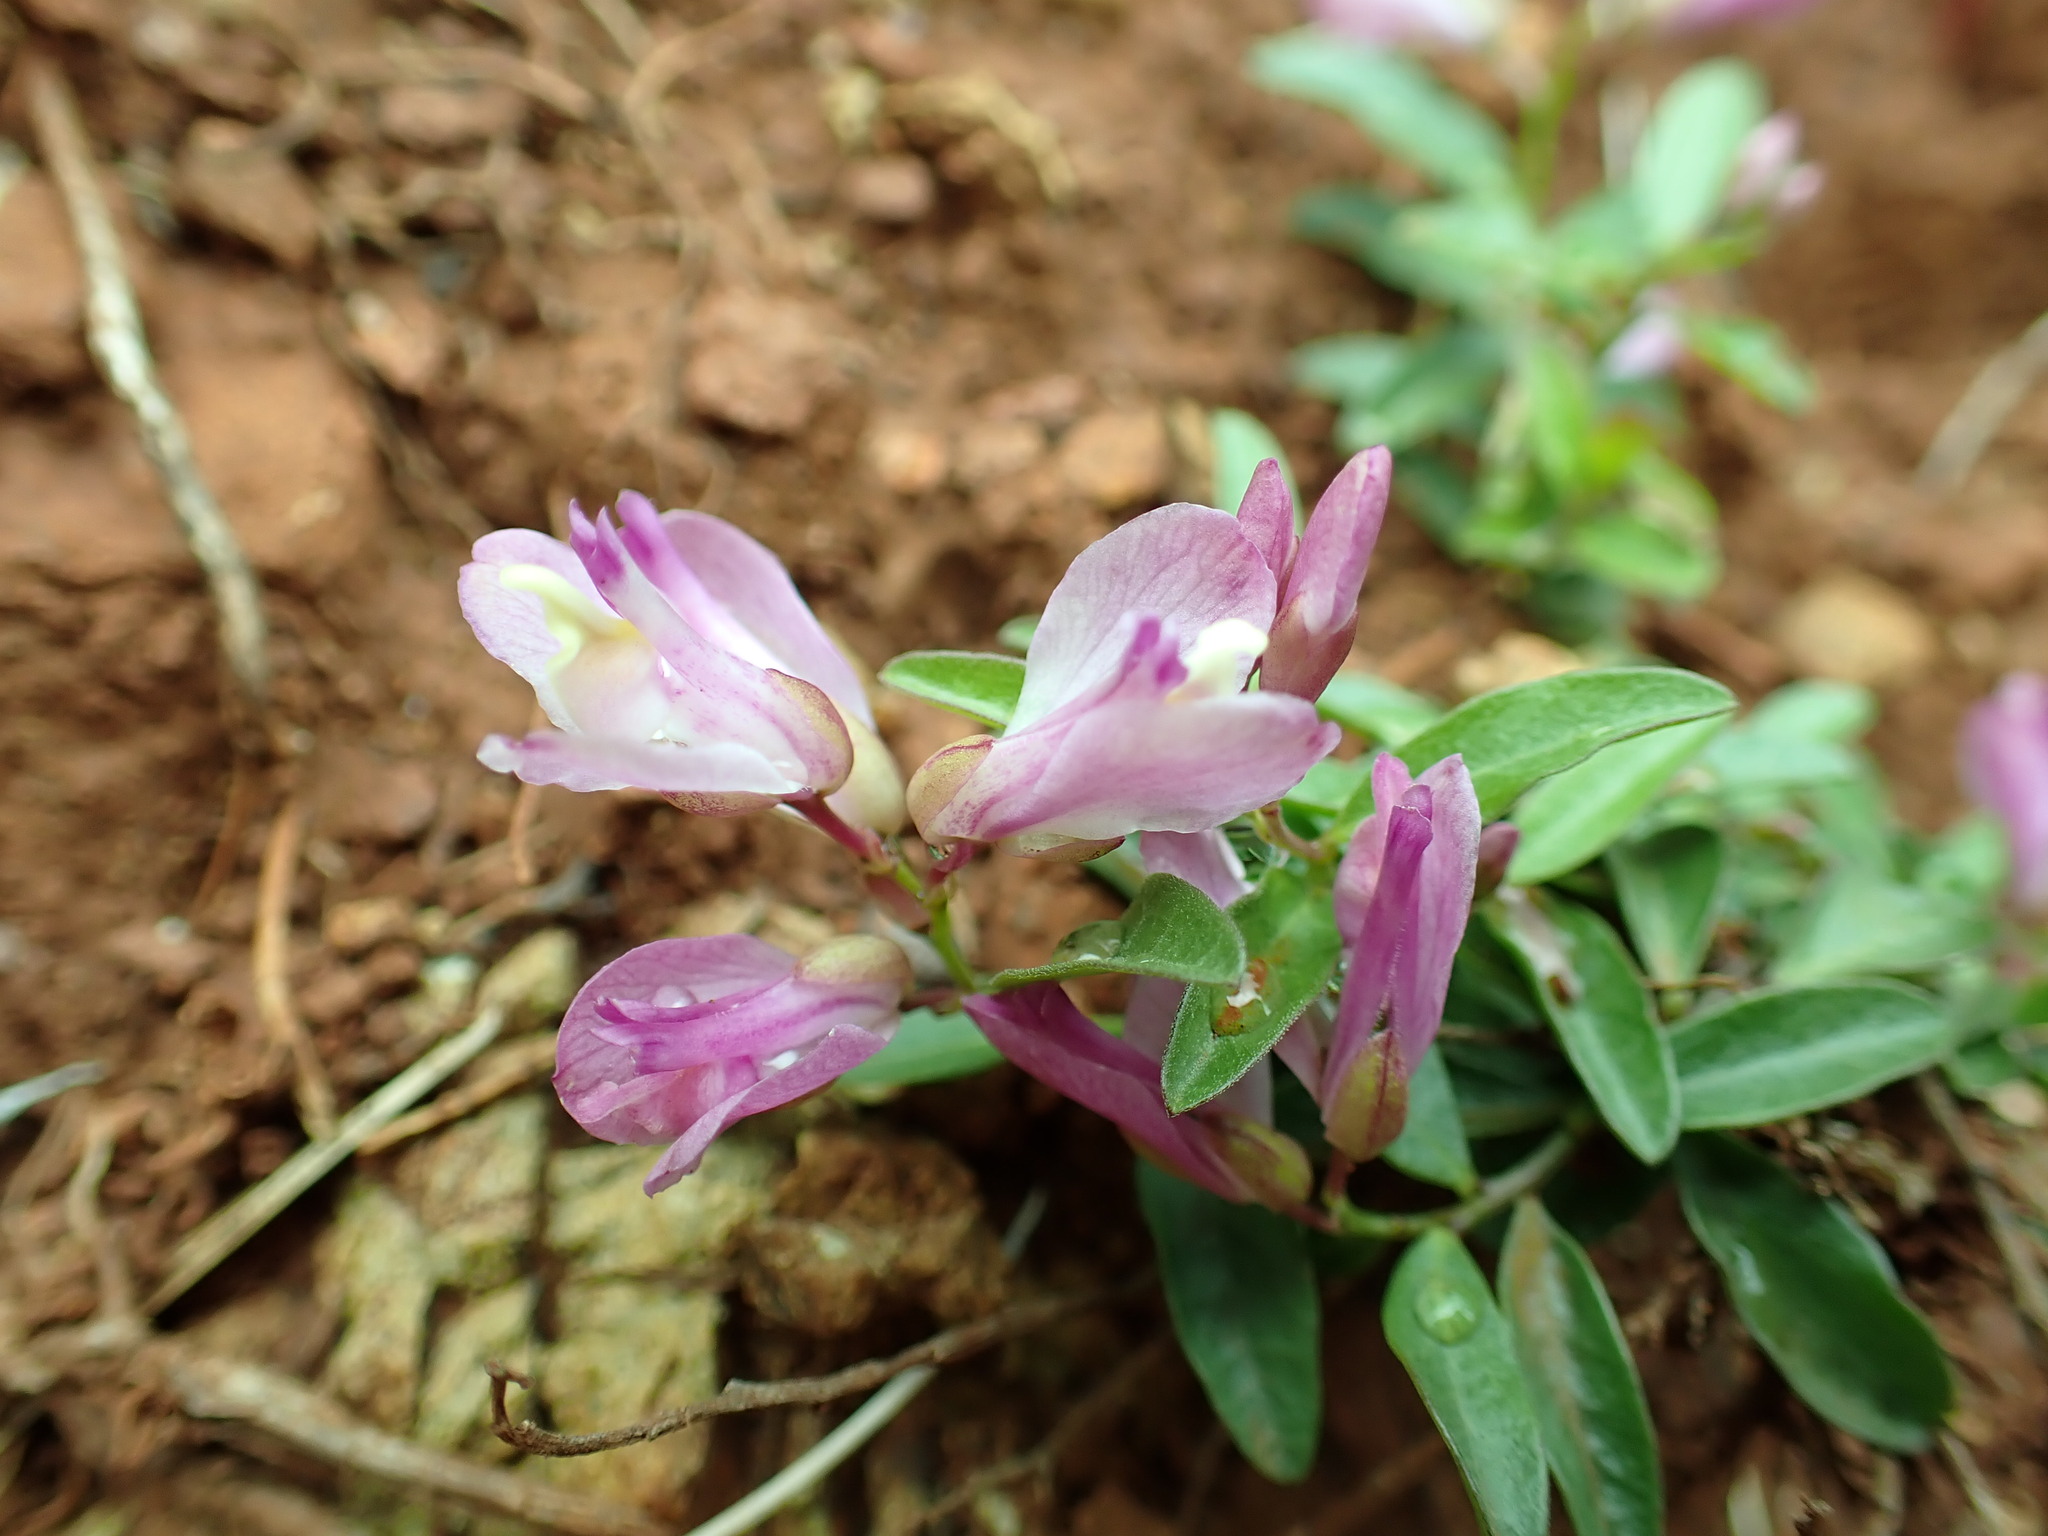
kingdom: Plantae
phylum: Tracheophyta
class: Magnoliopsida
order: Fabales
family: Polygalaceae
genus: Rhinotropis
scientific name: Rhinotropis californica
